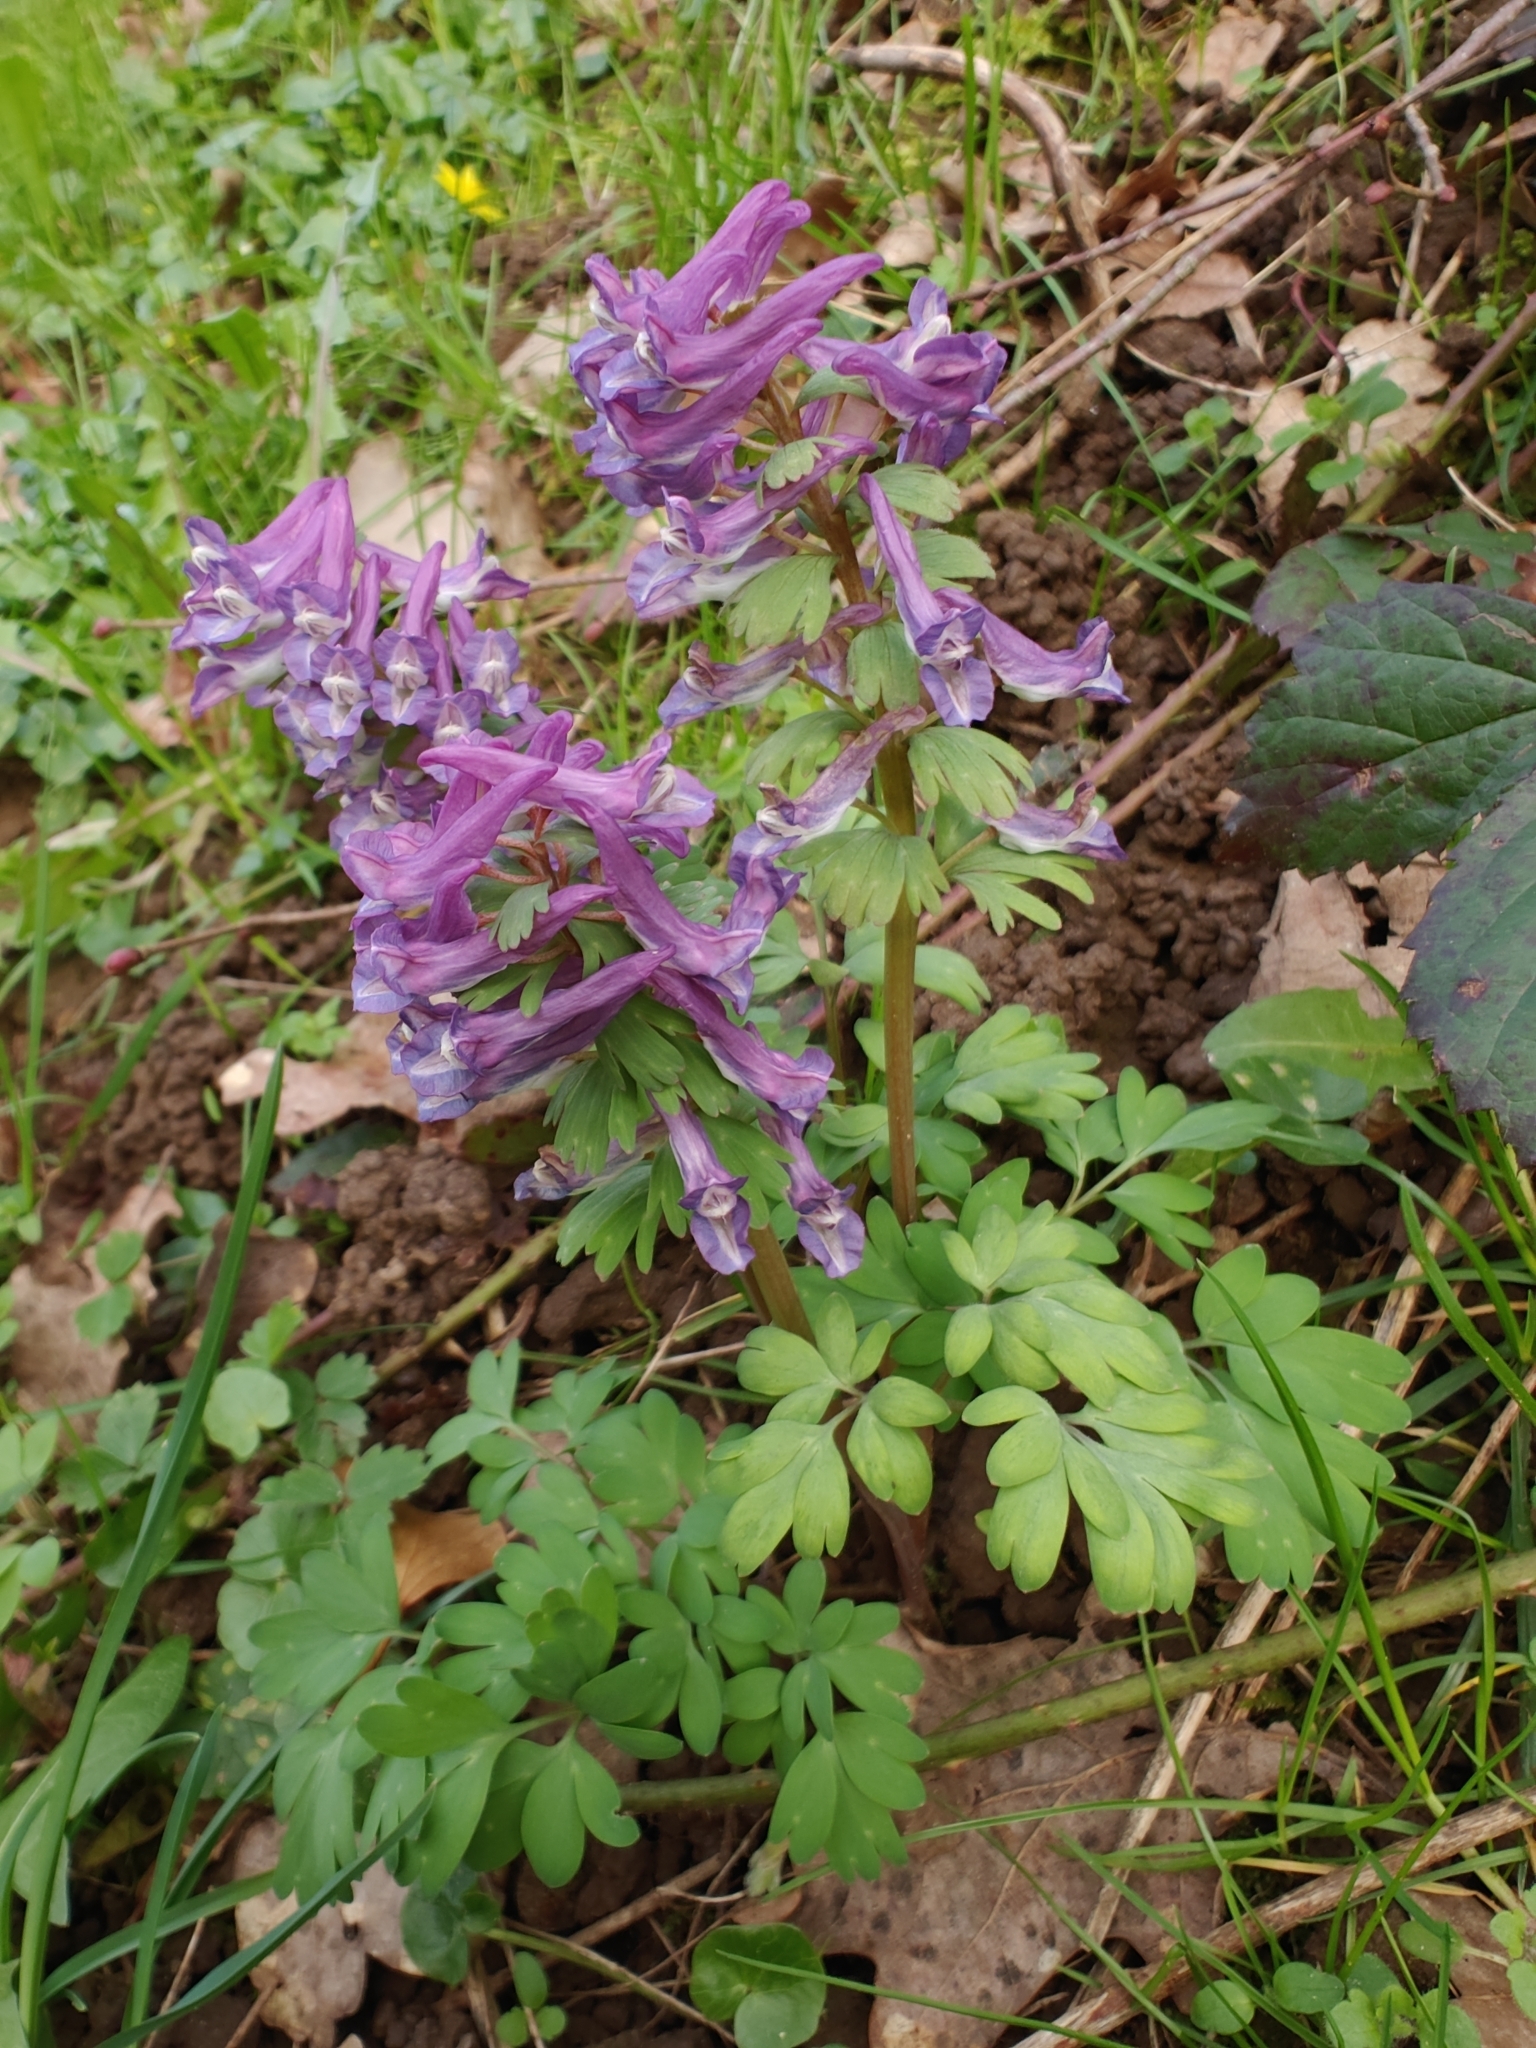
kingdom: Plantae
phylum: Tracheophyta
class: Magnoliopsida
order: Ranunculales
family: Papaveraceae
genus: Corydalis
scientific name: Corydalis solida
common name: Bird-in-a-bush
